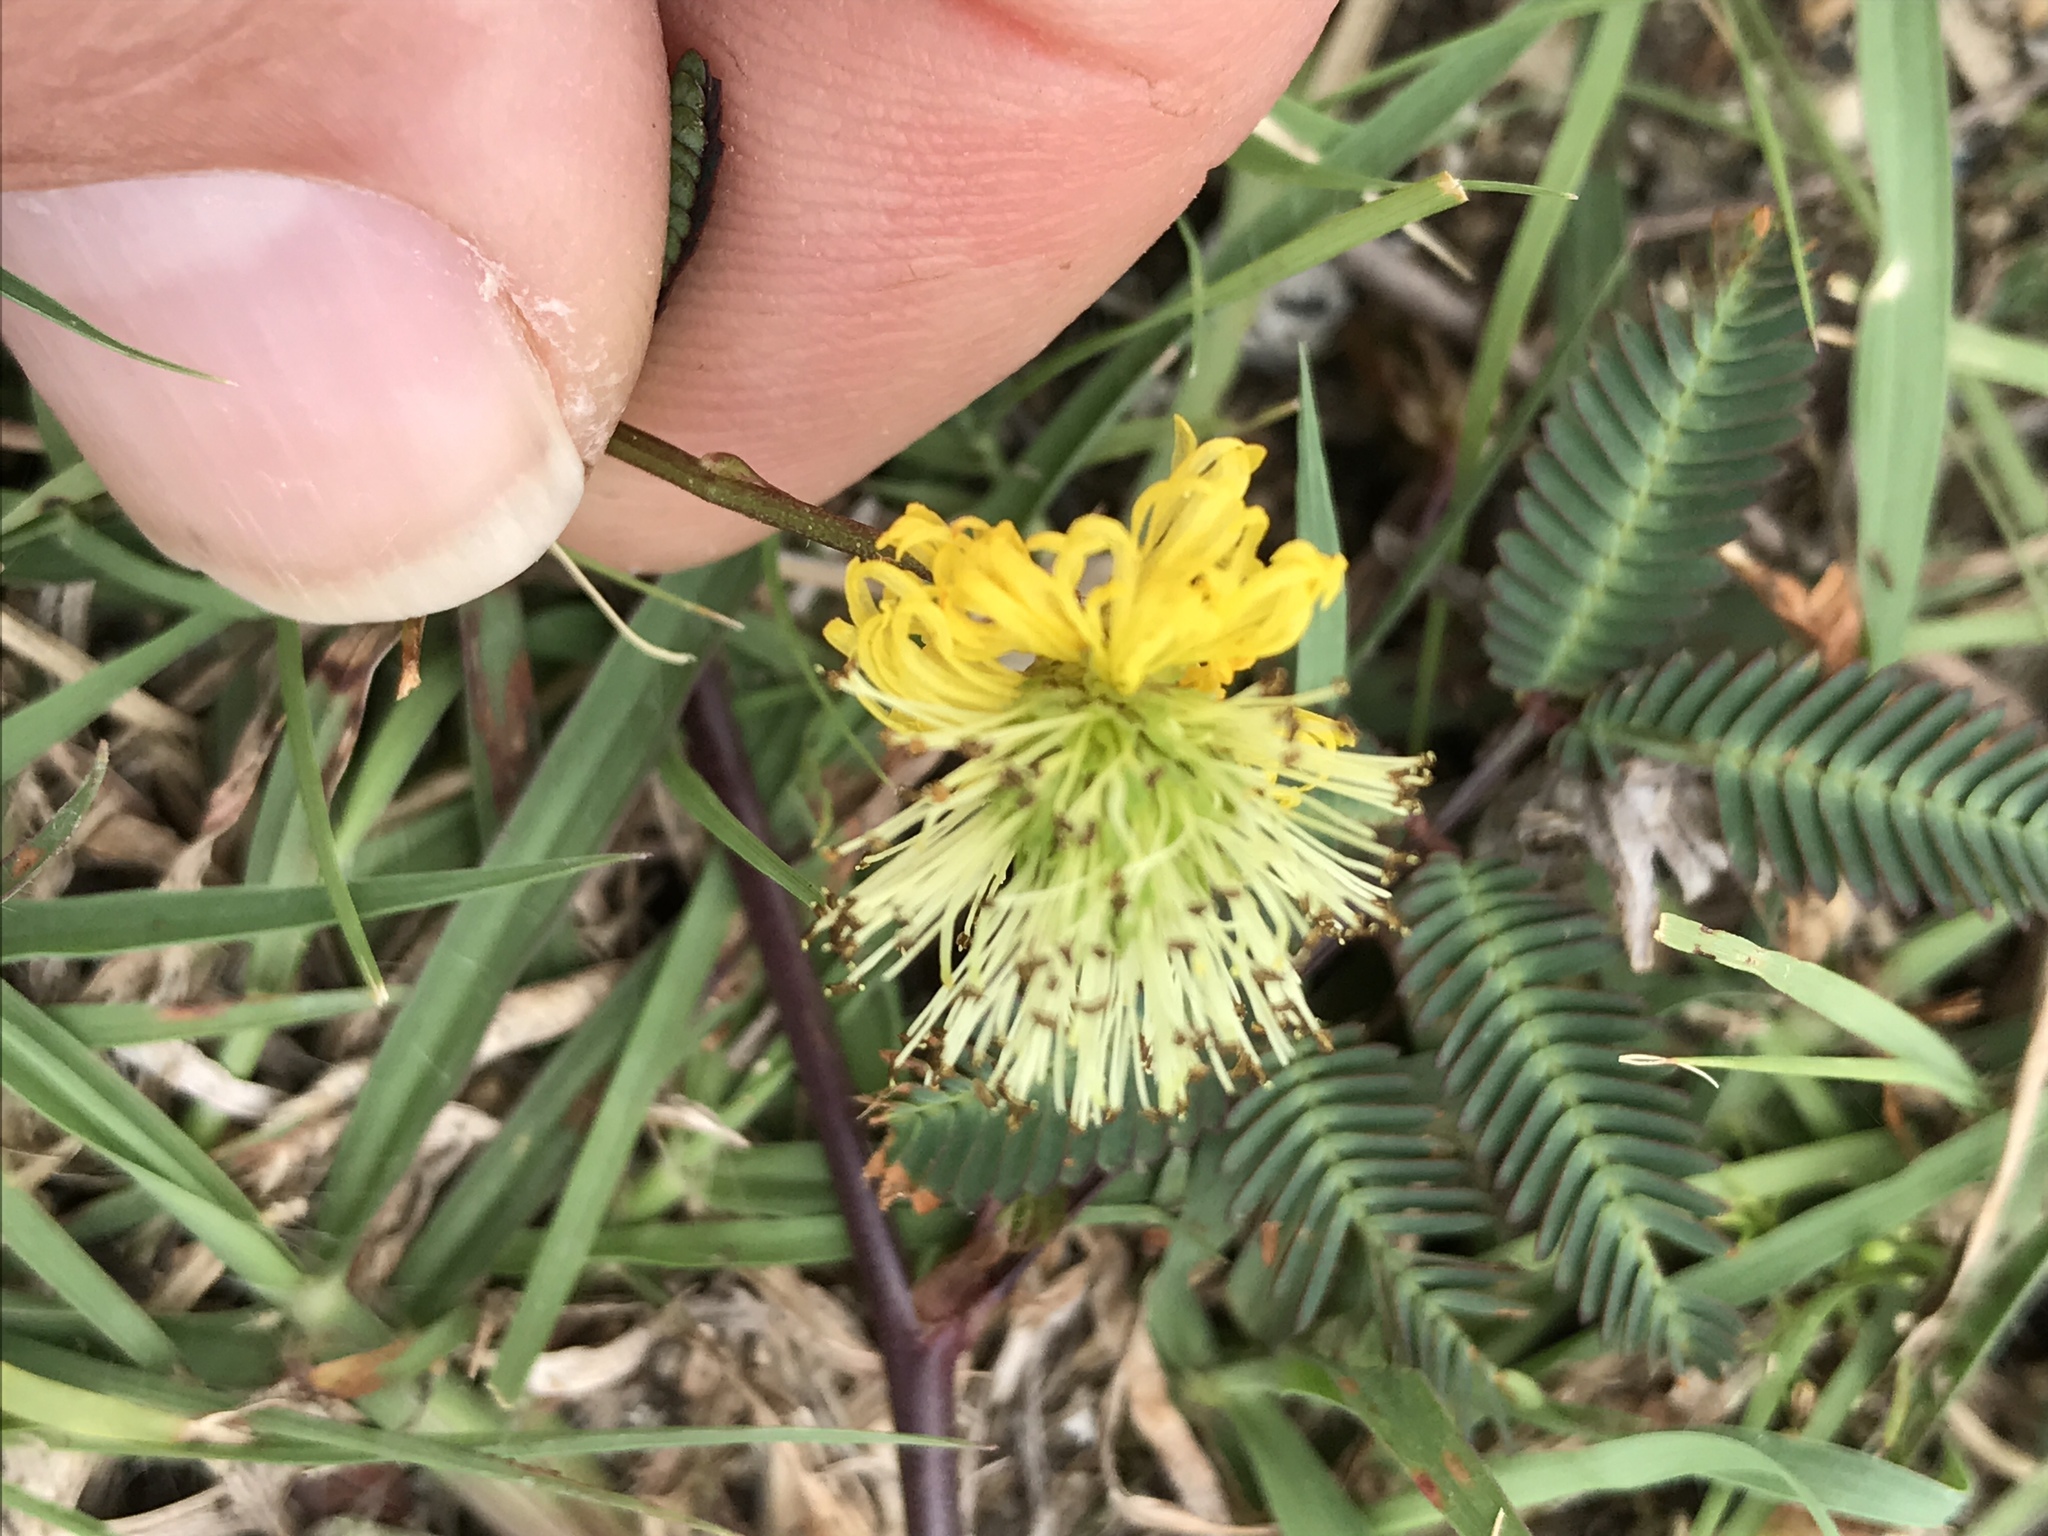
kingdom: Plantae
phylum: Tracheophyta
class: Magnoliopsida
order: Fabales
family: Fabaceae
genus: Neptunia
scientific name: Neptunia pubescens
